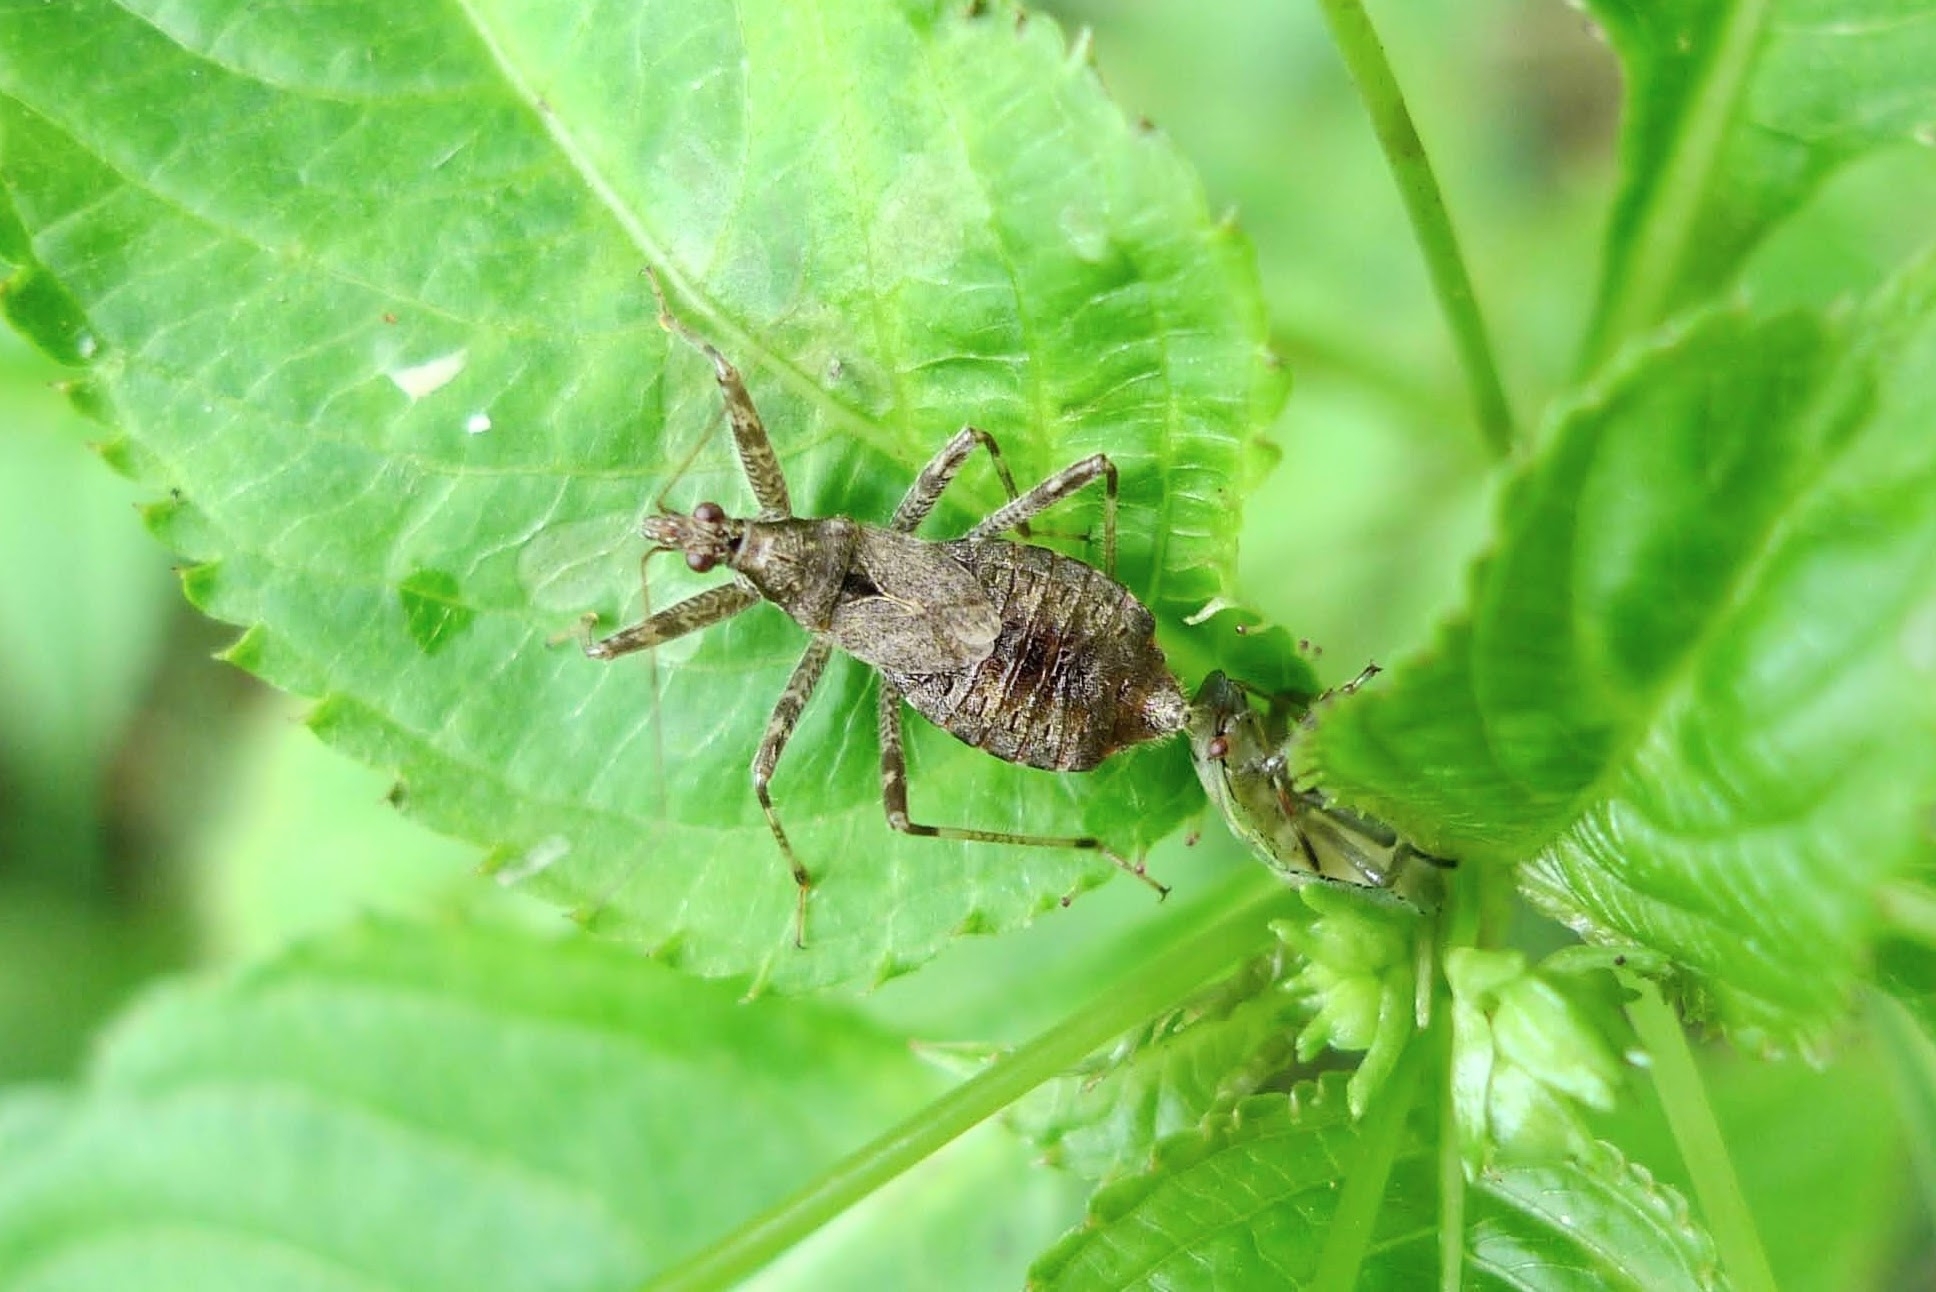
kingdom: Animalia
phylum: Arthropoda
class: Insecta
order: Hemiptera
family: Nabidae
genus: Himacerus
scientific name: Himacerus apterus
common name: Tree damsel bug
